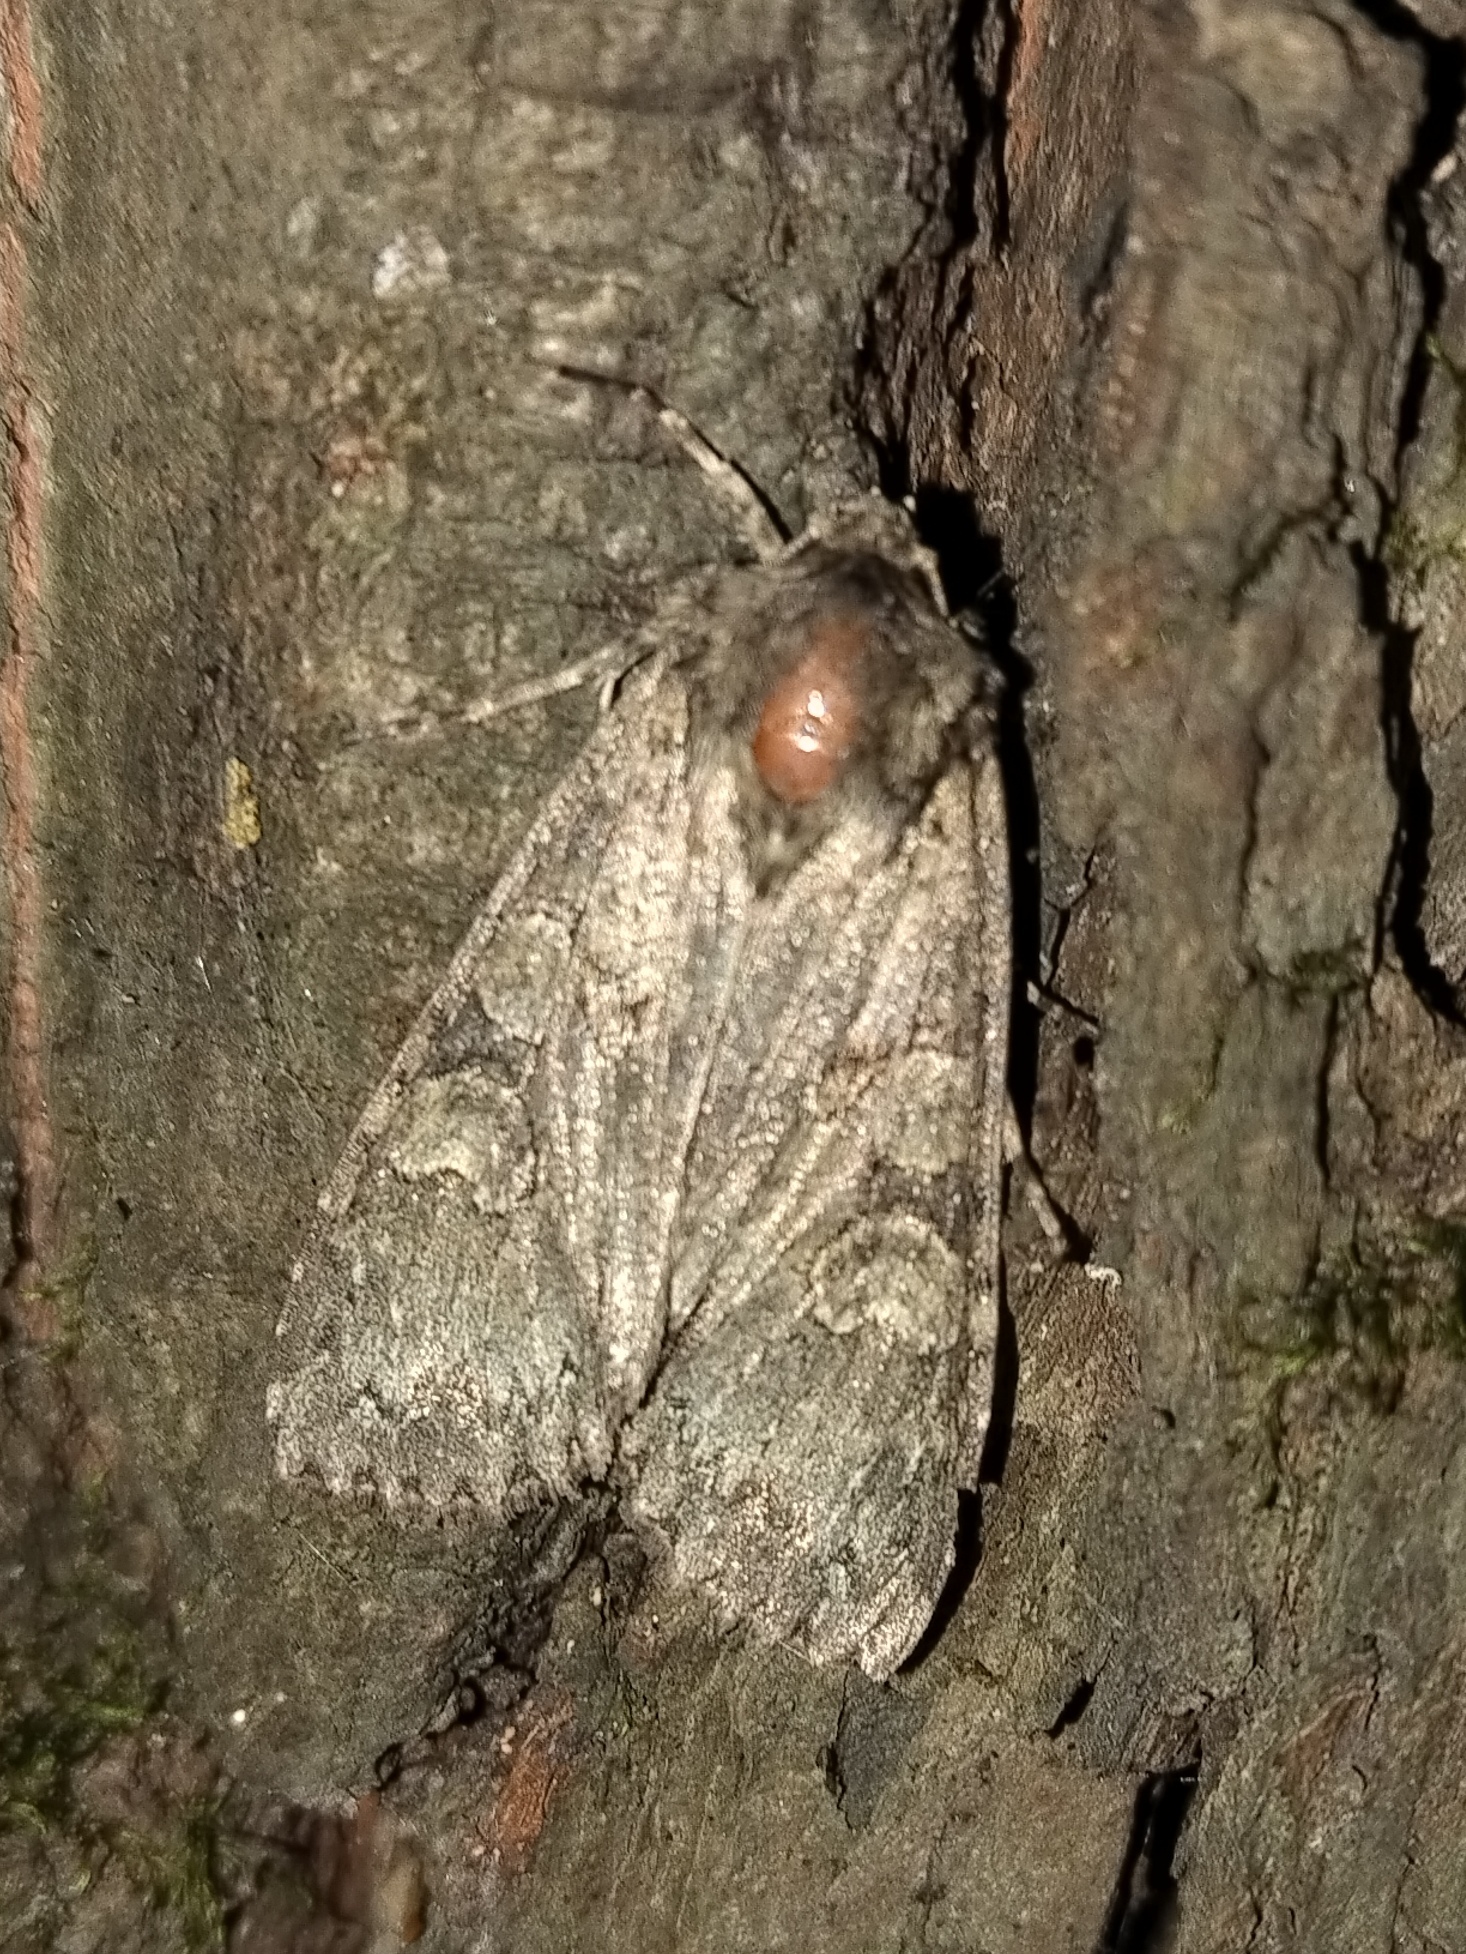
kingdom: Animalia
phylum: Arthropoda
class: Insecta
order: Lepidoptera
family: Noctuidae
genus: Polia
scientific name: Polia nebulosa
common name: Grey arches
